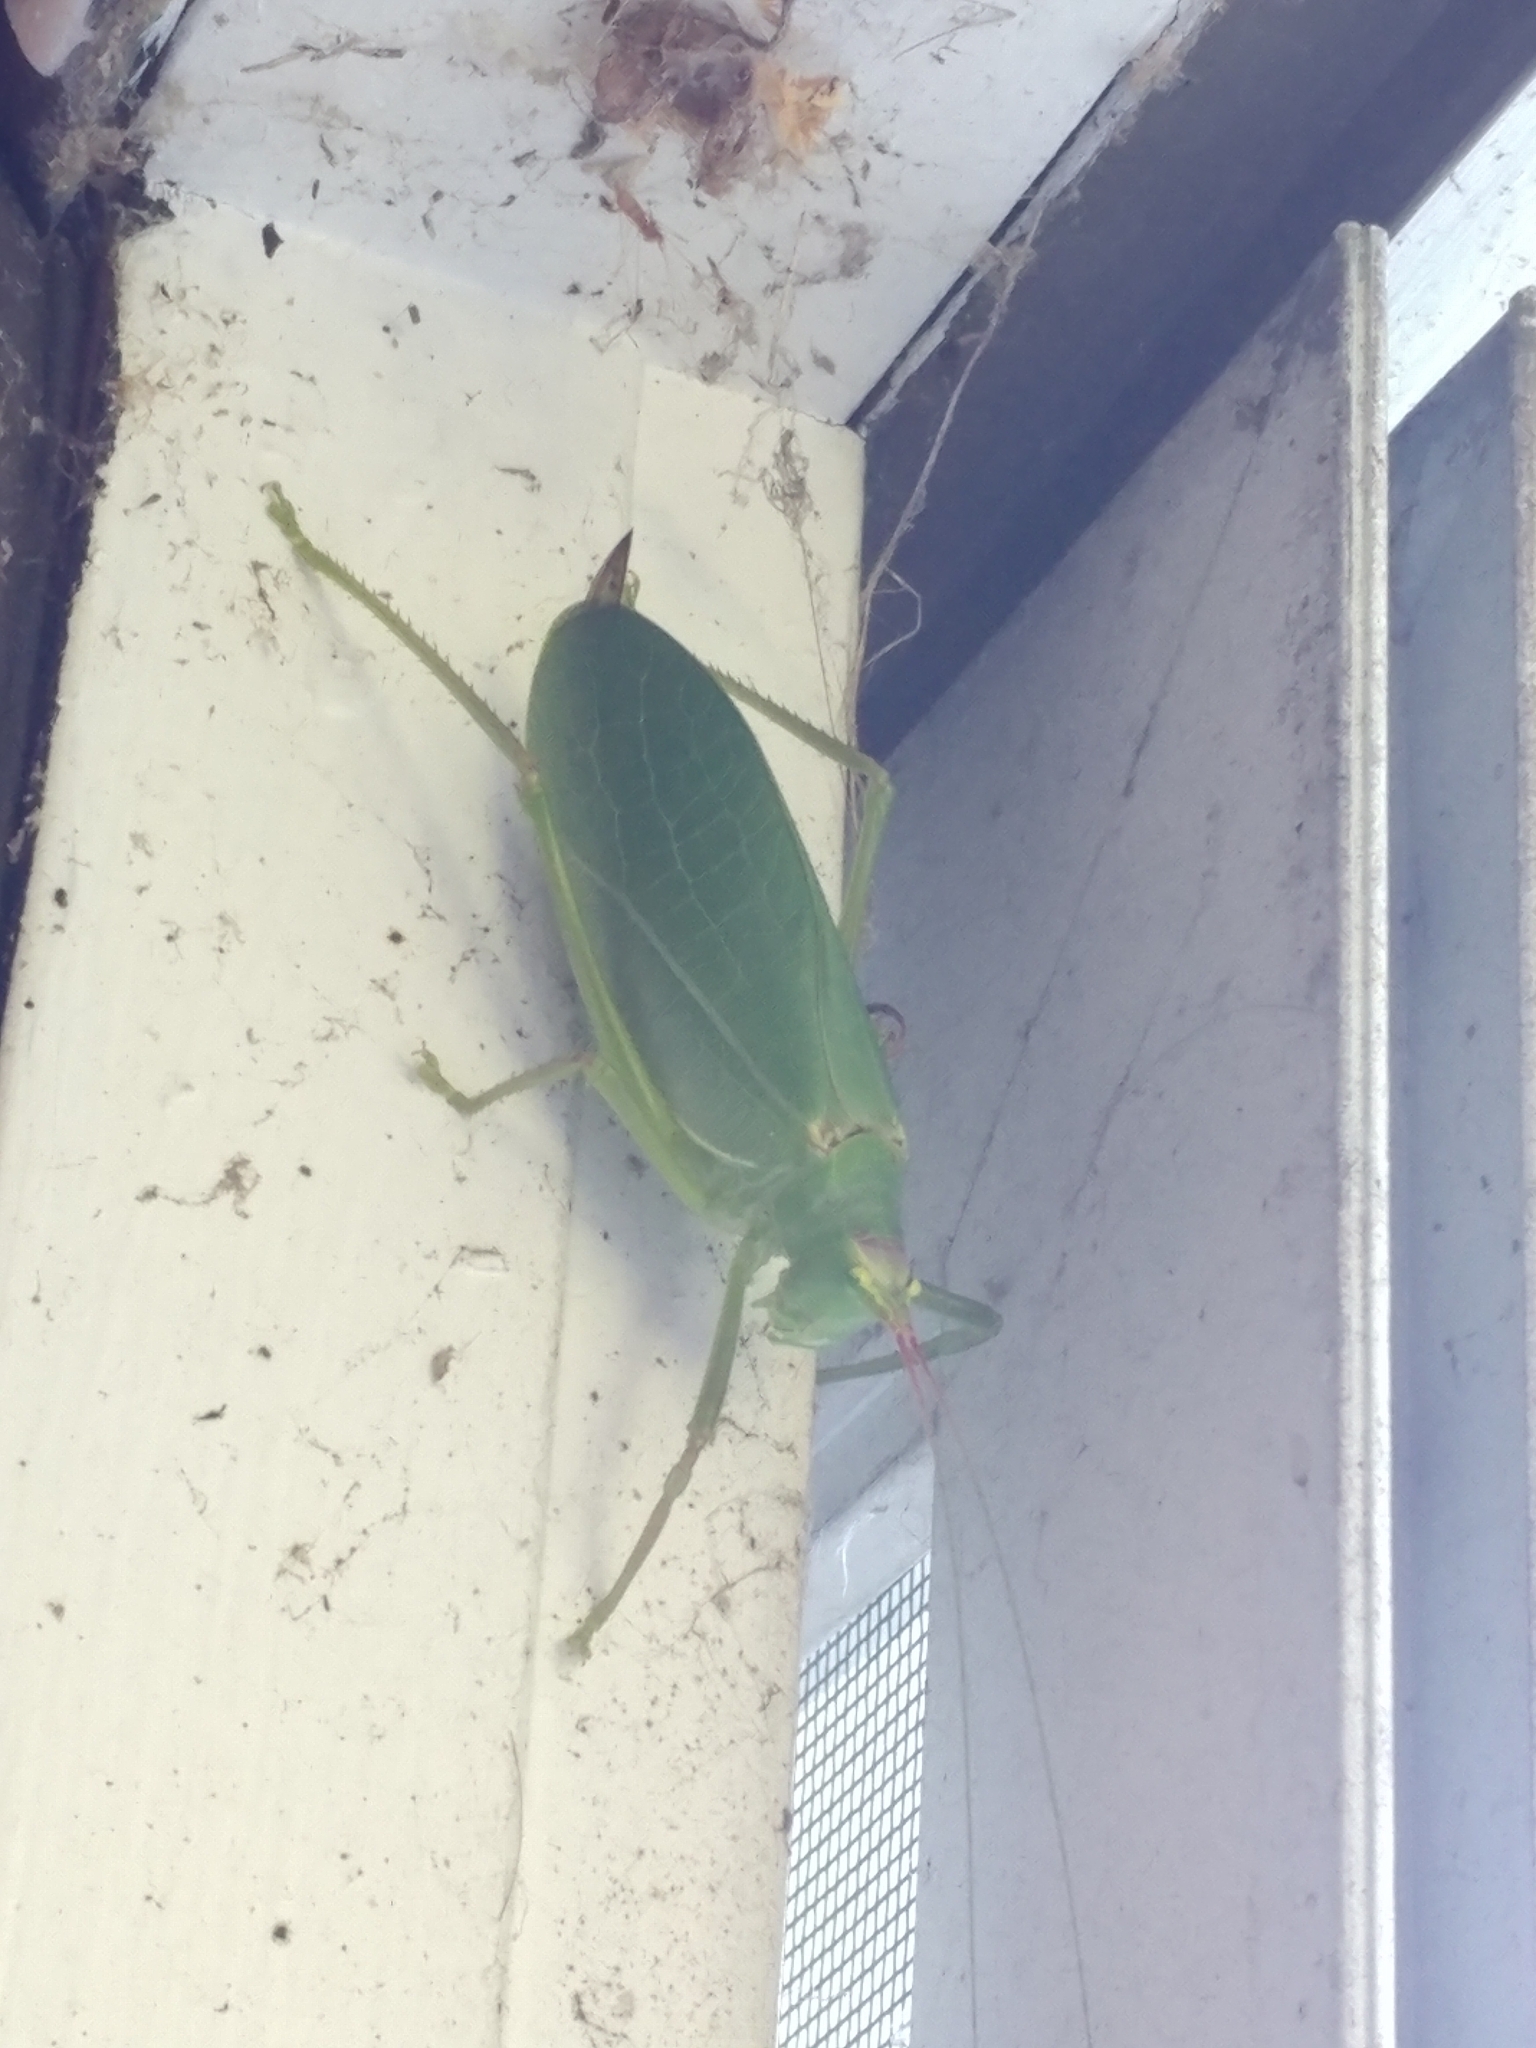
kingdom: Animalia
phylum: Arthropoda
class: Insecta
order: Orthoptera
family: Tettigoniidae
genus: Pterophylla
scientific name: Pterophylla camellifolia
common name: Common true katydid
